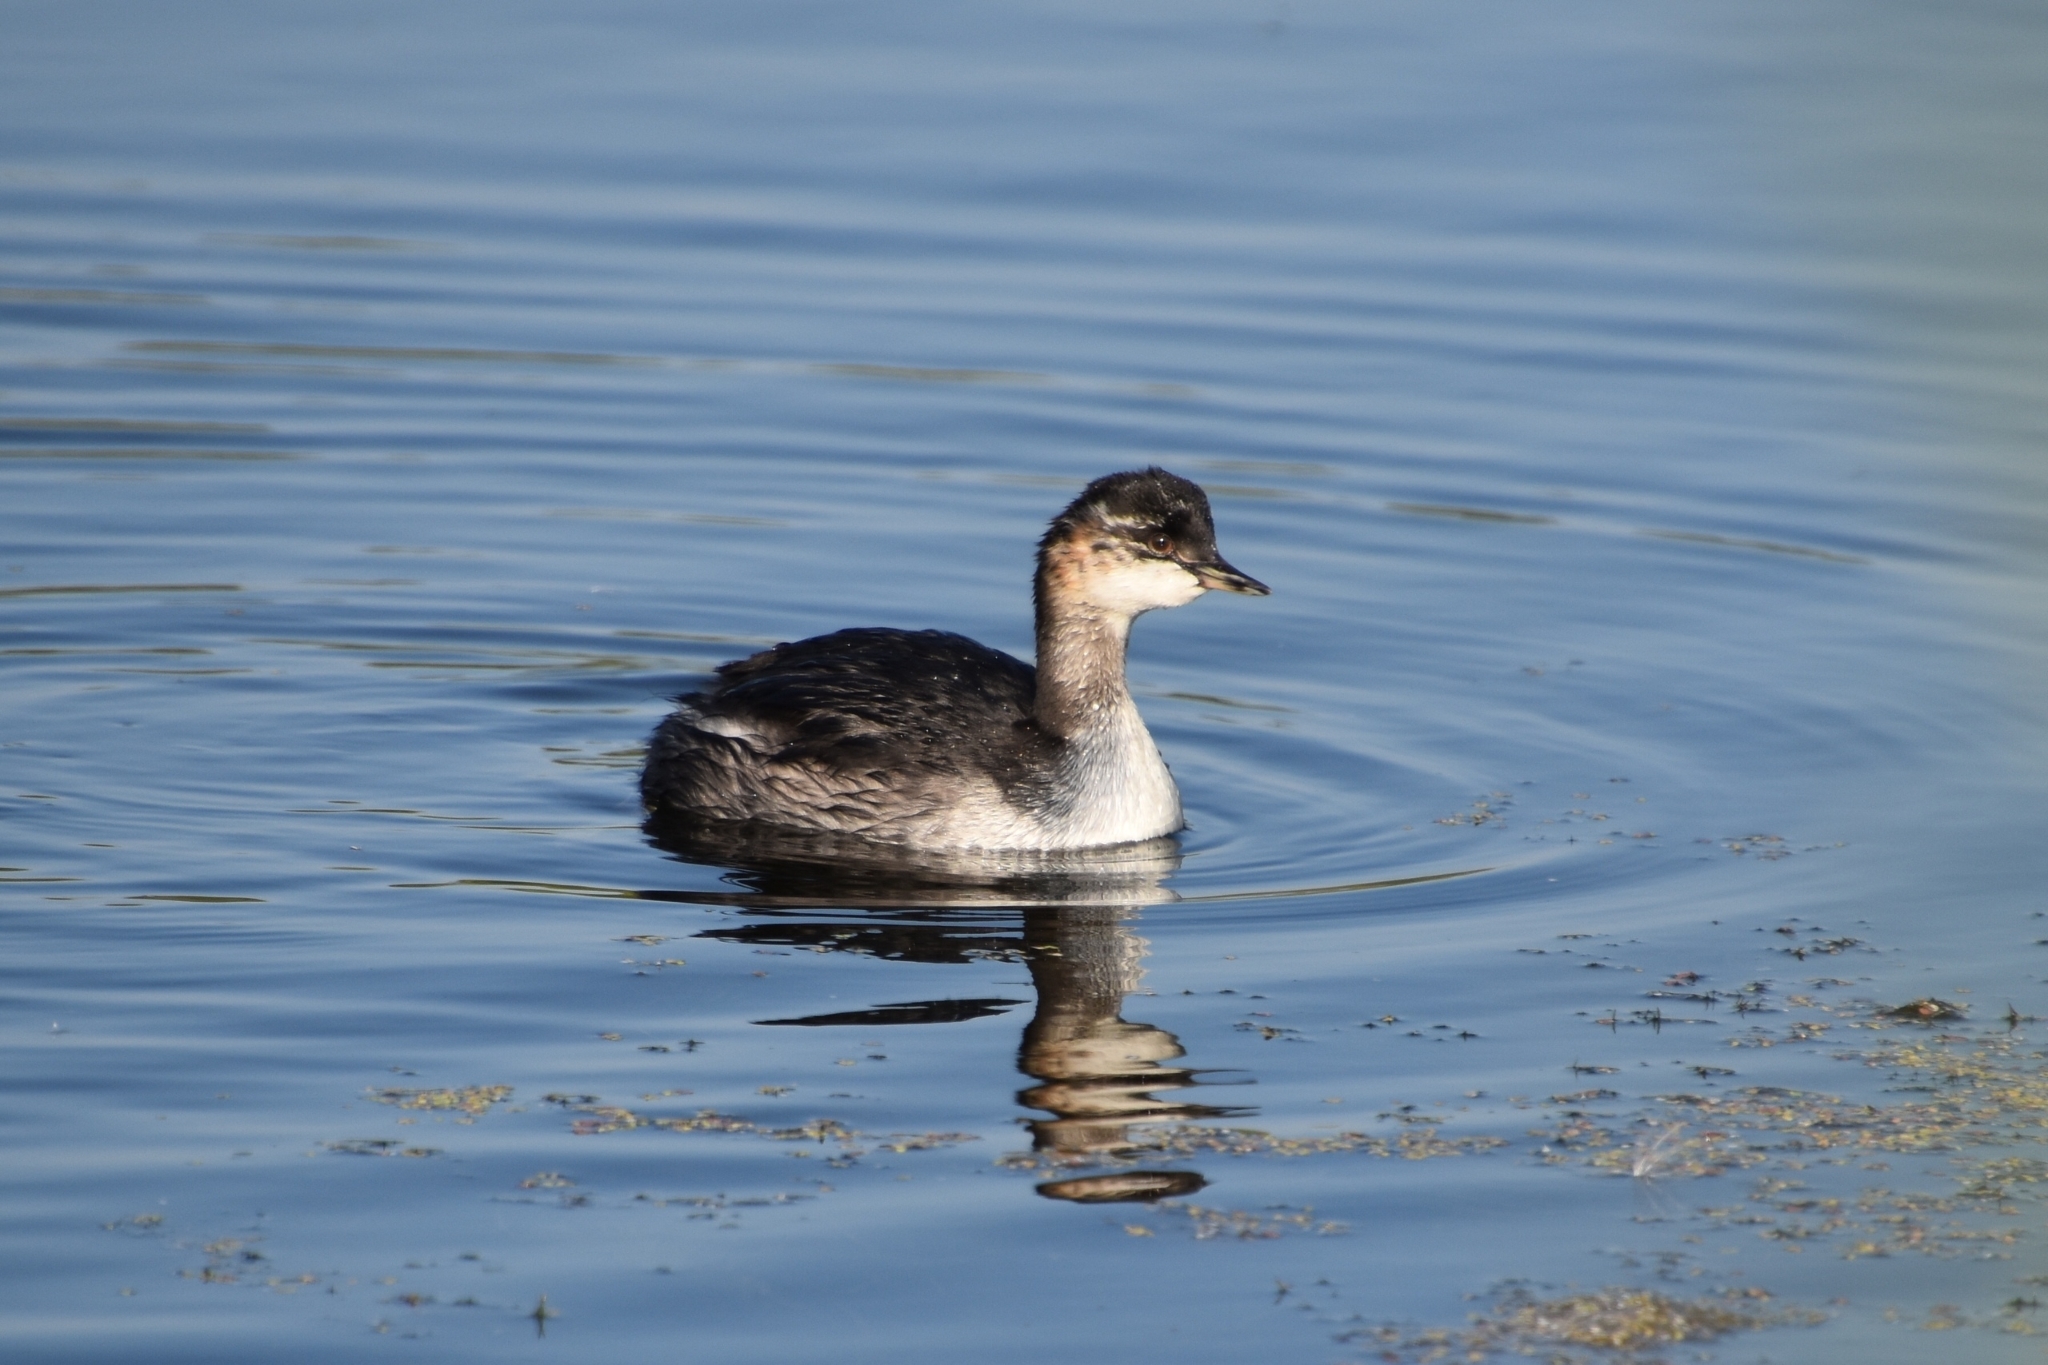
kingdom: Animalia
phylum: Chordata
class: Aves
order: Podicipediformes
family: Podicipedidae
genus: Podiceps
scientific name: Podiceps nigricollis
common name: Black-necked grebe
